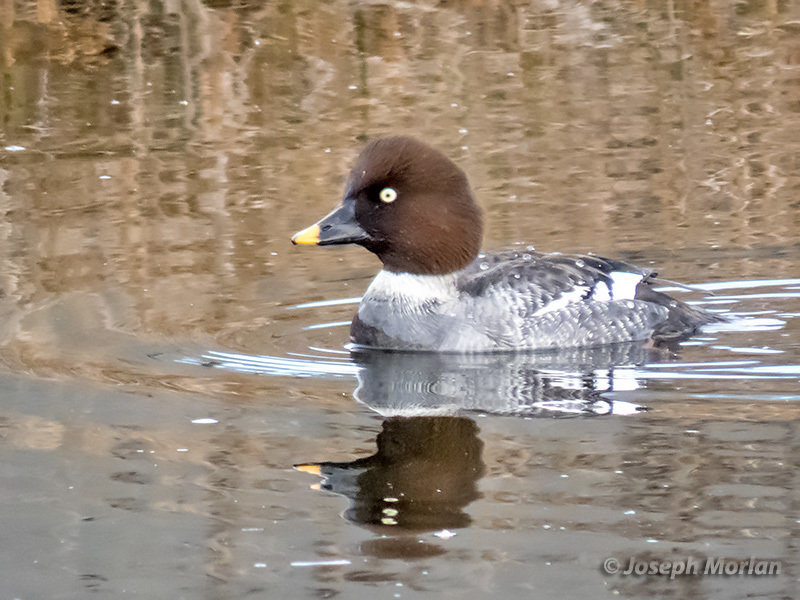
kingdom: Animalia
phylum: Chordata
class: Aves
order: Anseriformes
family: Anatidae
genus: Bucephala
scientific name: Bucephala clangula
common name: Common goldeneye
